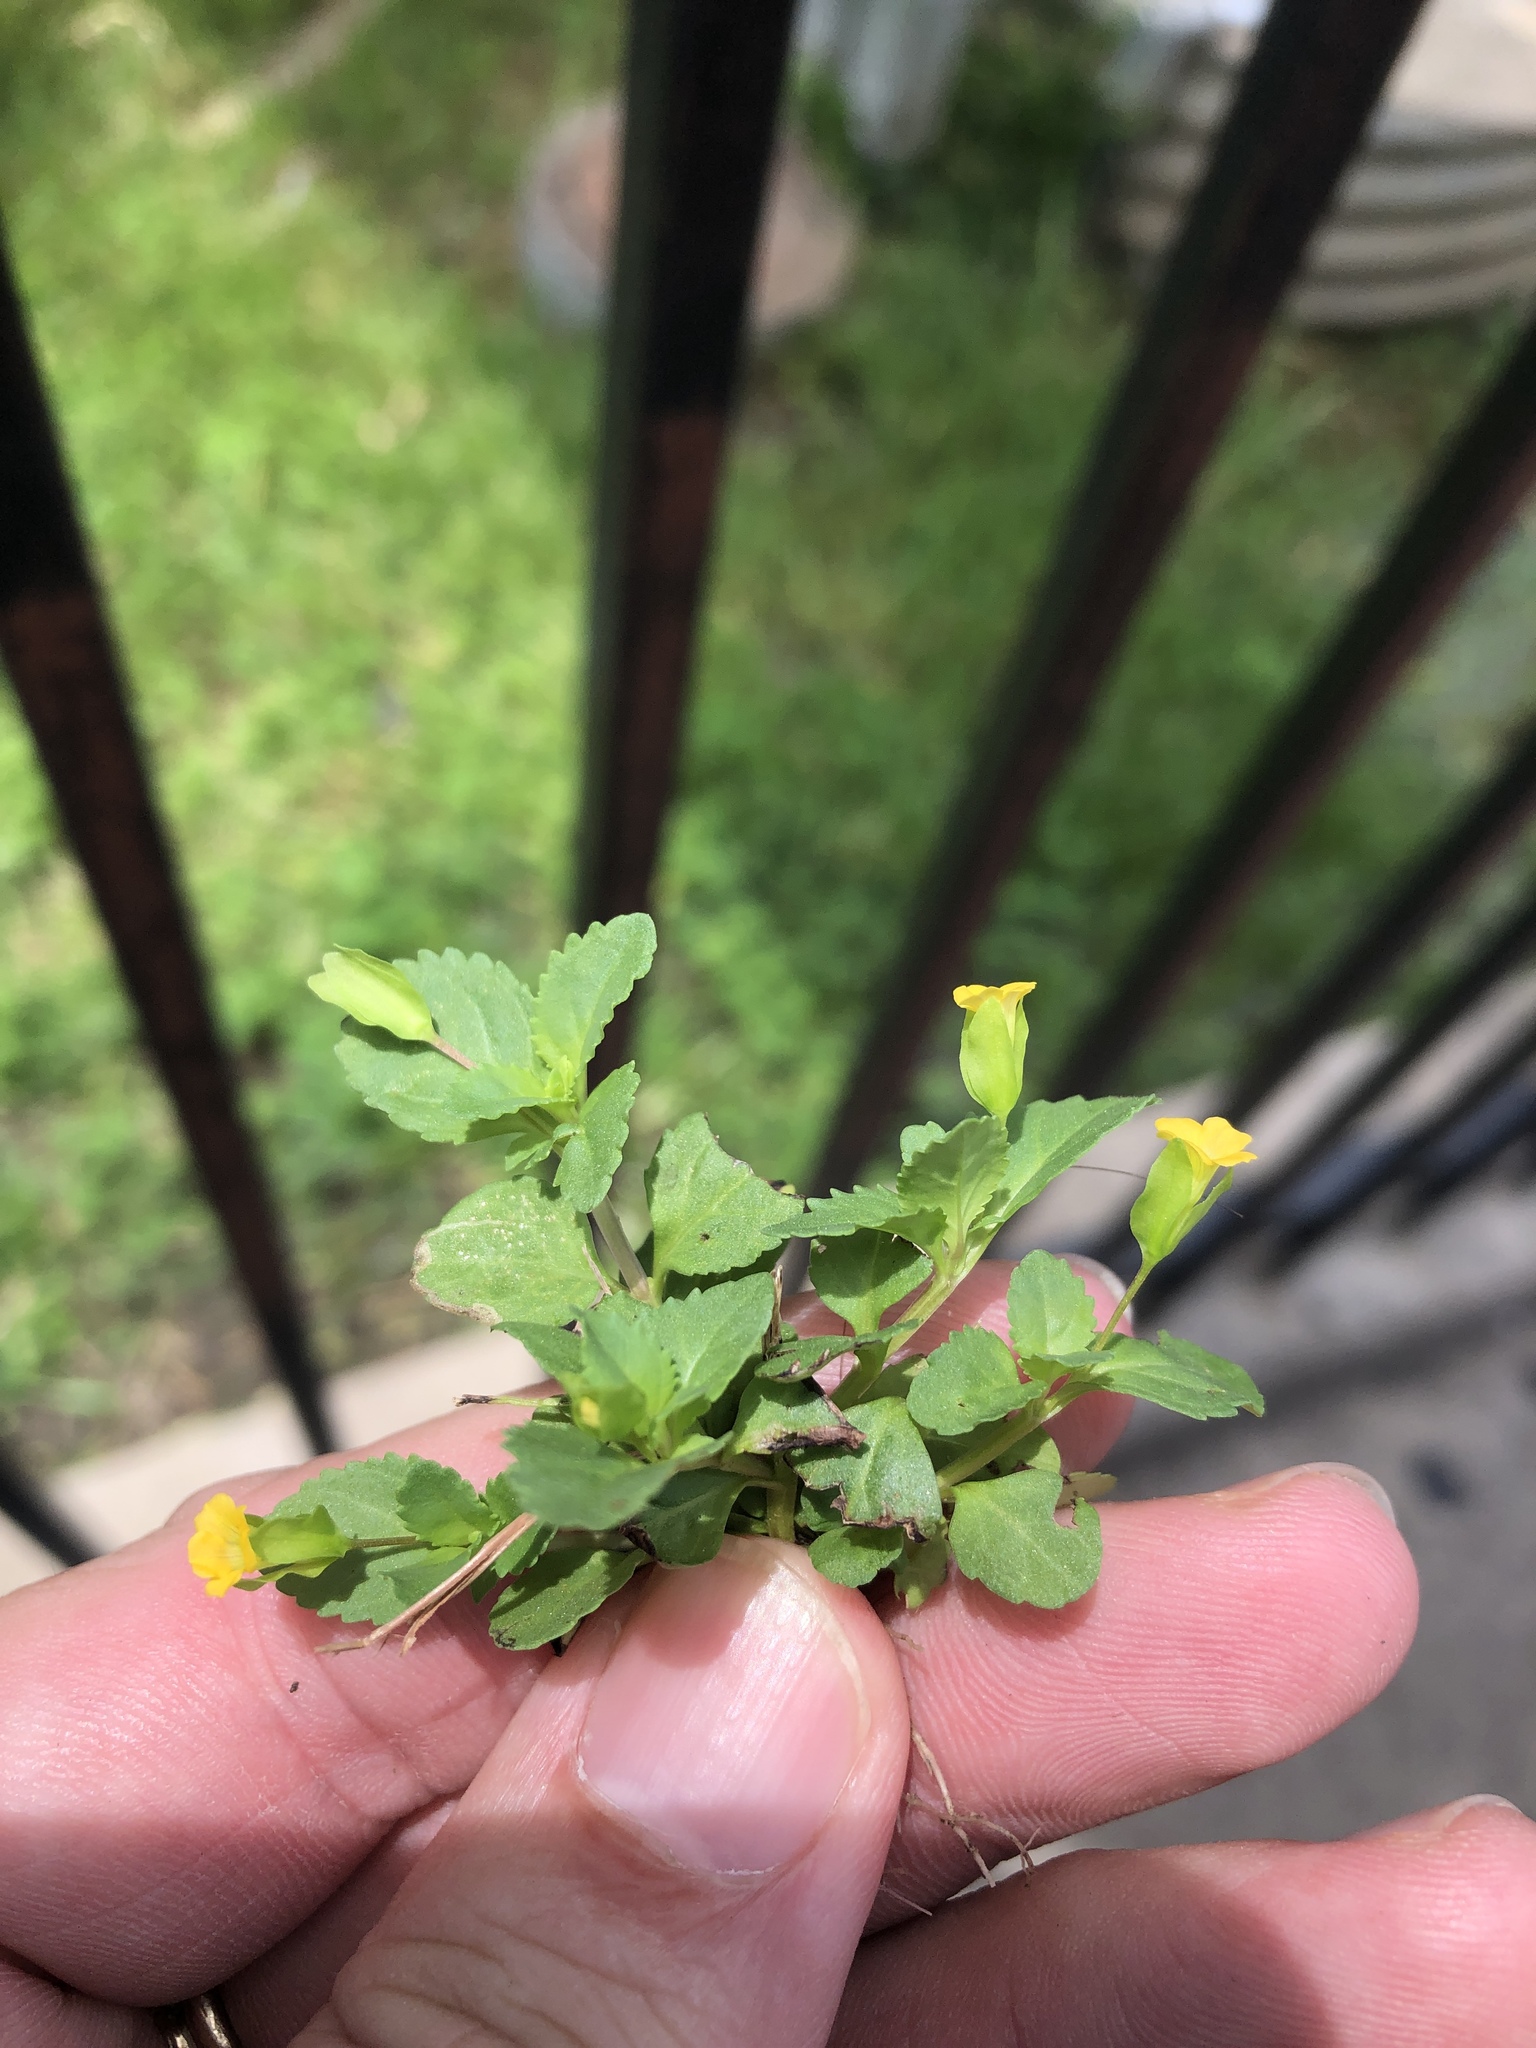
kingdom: Plantae
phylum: Tracheophyta
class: Magnoliopsida
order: Lamiales
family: Plantaginaceae
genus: Mecardonia
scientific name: Mecardonia procumbens
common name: Baby jump-up
